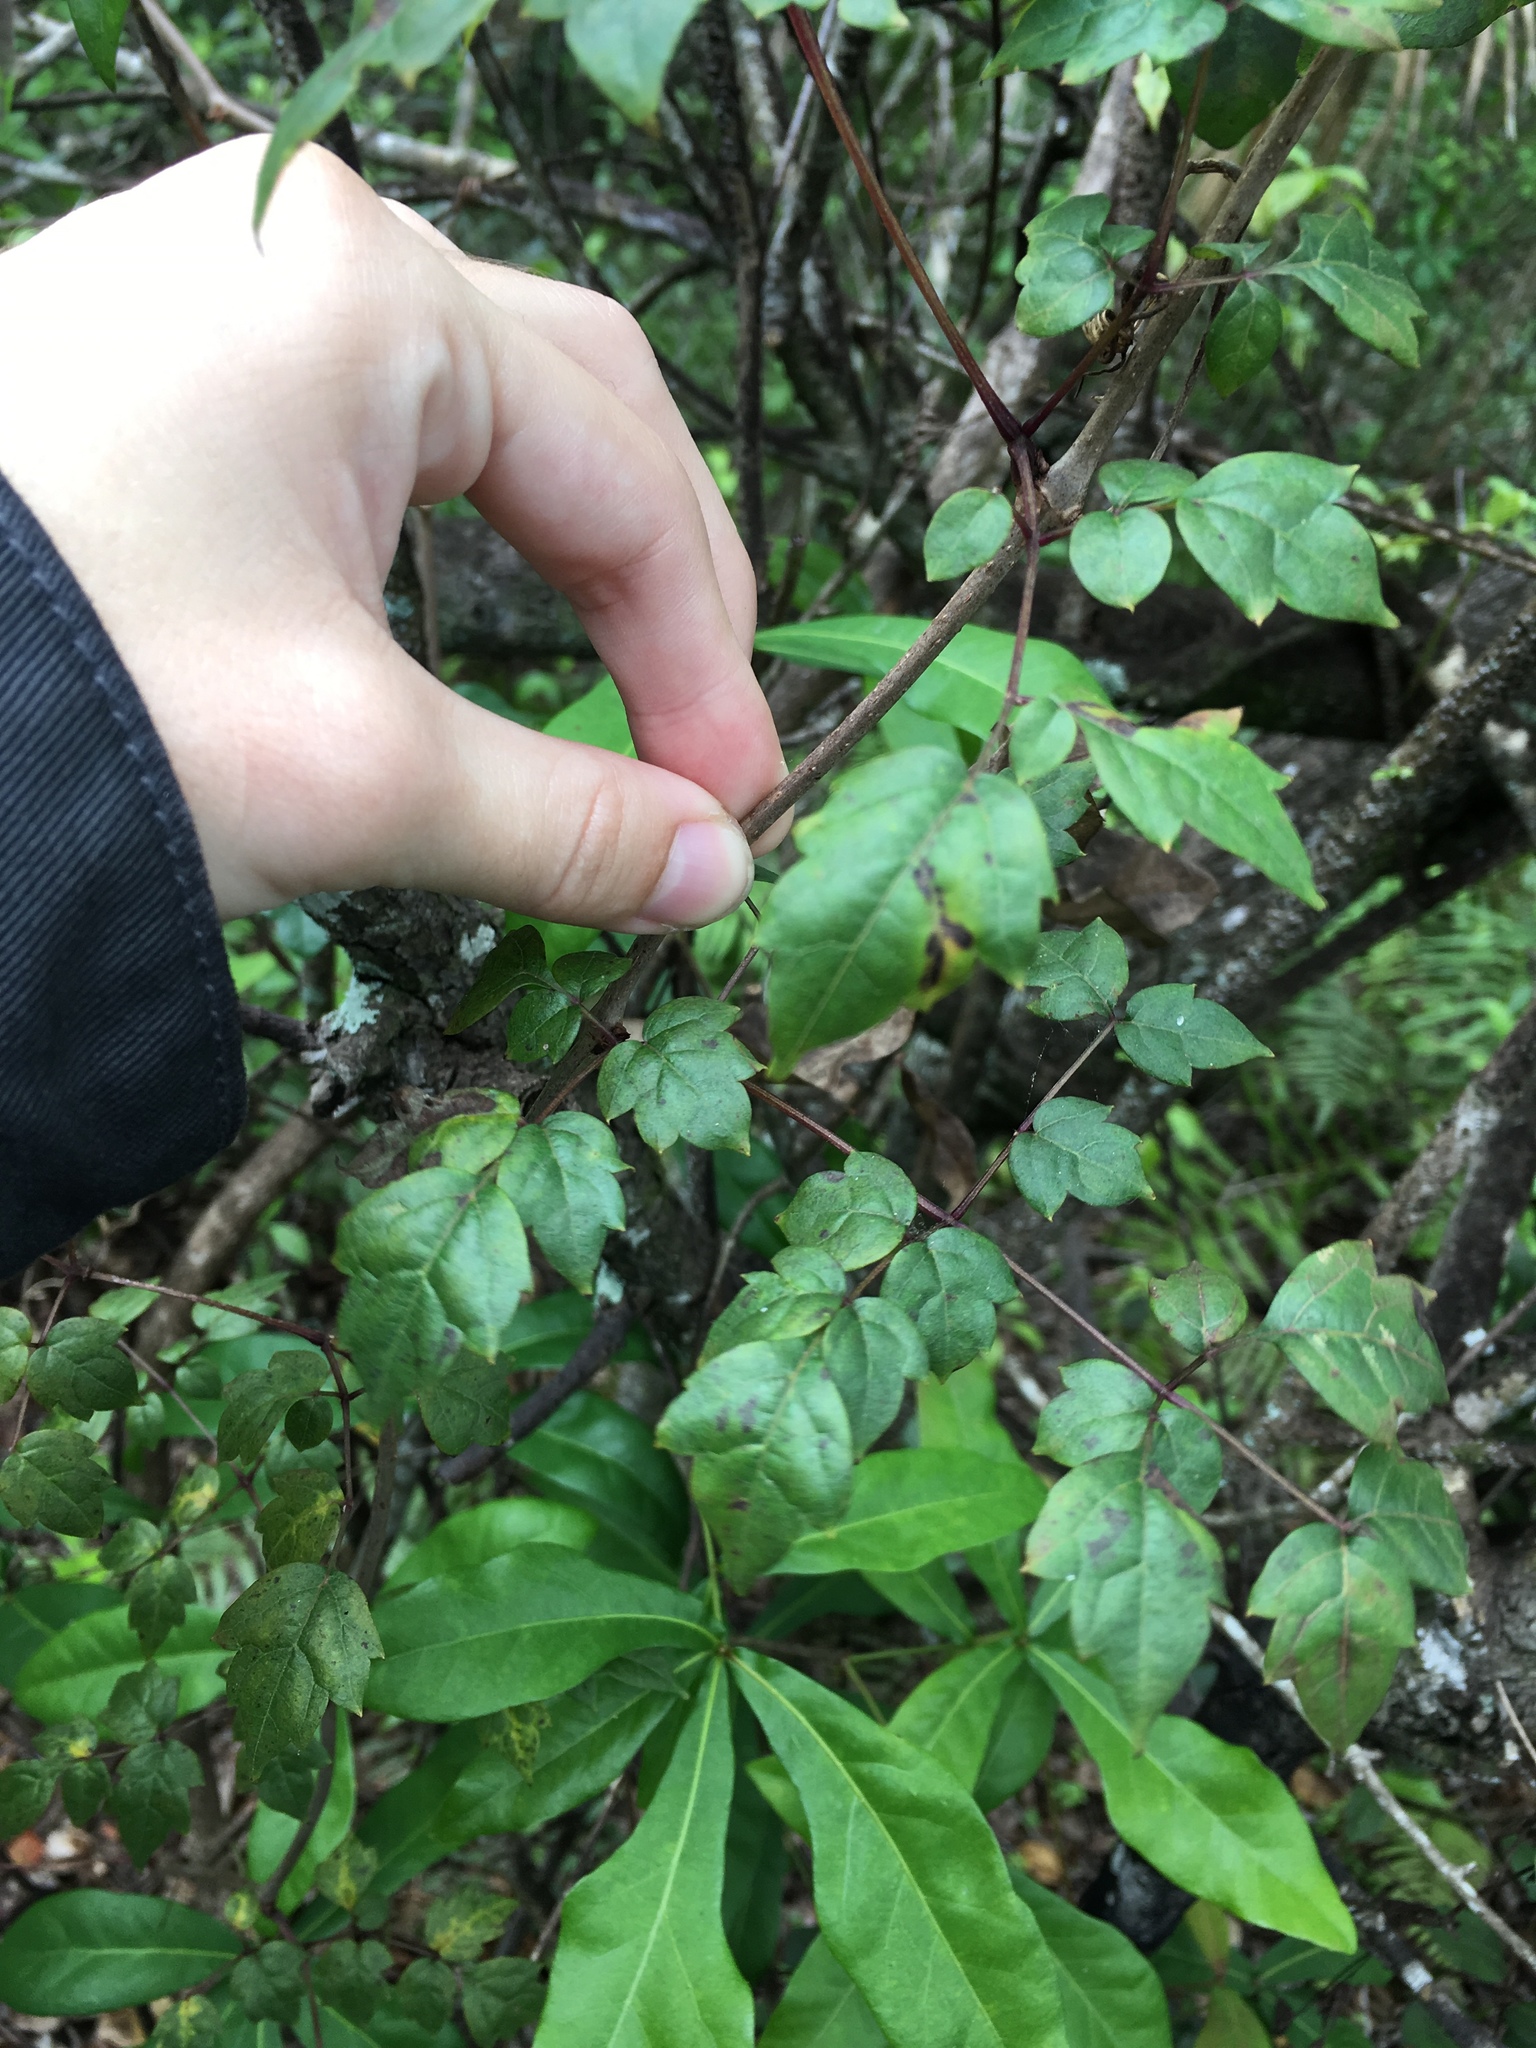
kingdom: Plantae
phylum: Tracheophyta
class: Magnoliopsida
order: Vitales
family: Vitaceae
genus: Nekemias
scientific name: Nekemias arborea
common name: Peppervine
